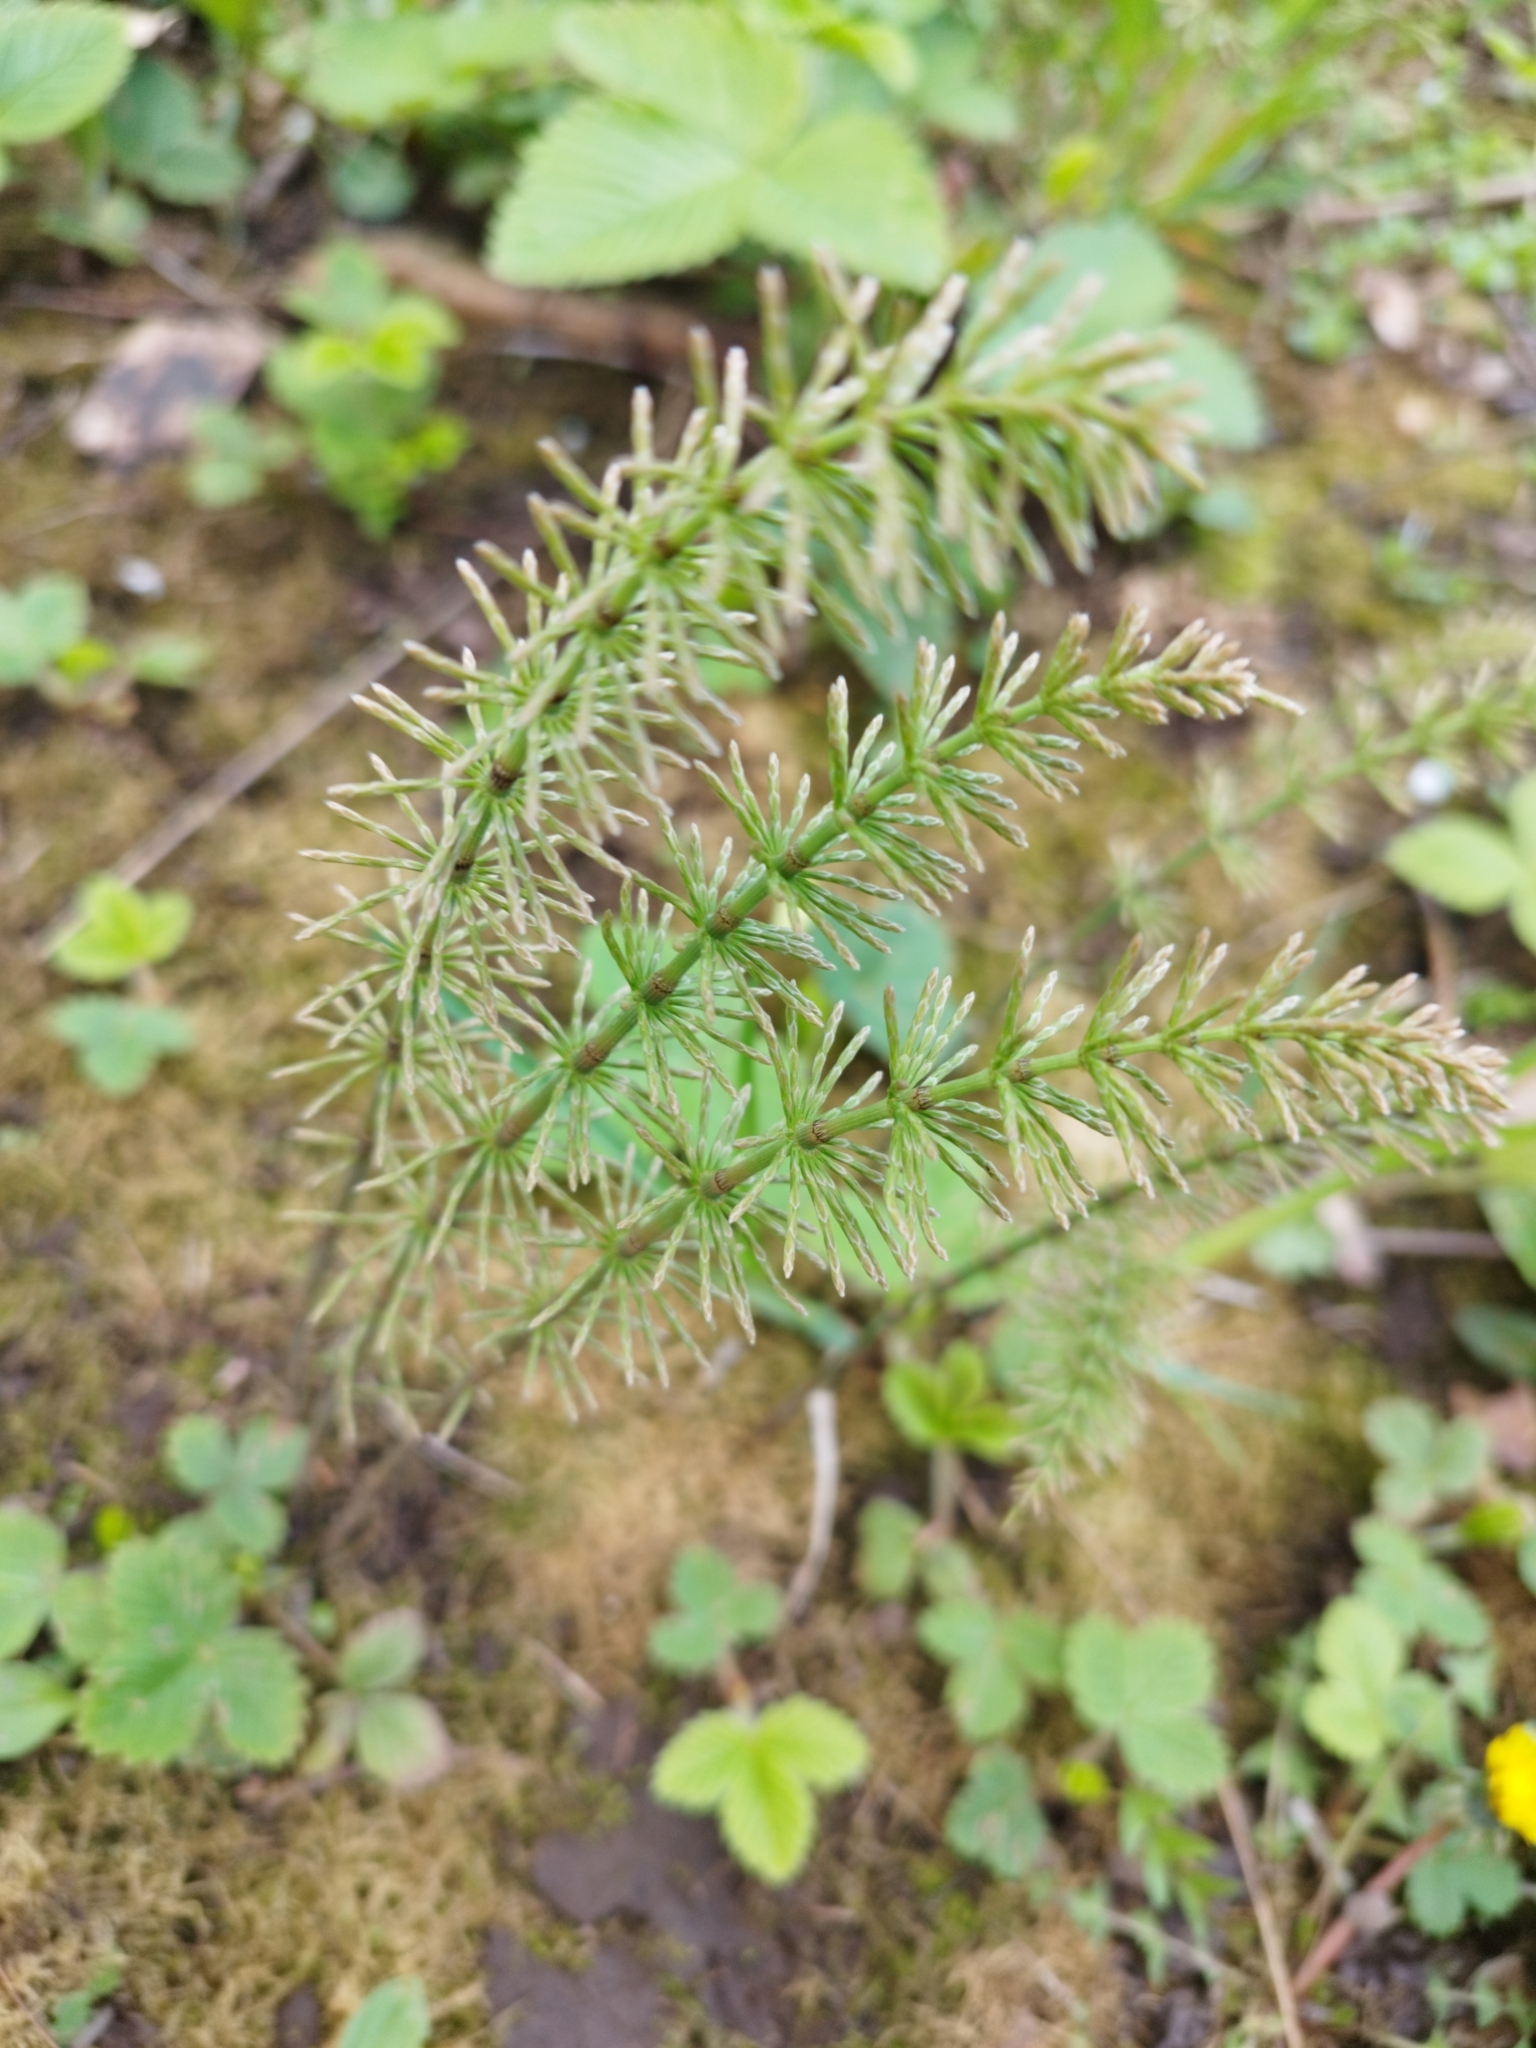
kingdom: Plantae
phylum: Tracheophyta
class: Polypodiopsida
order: Equisetales
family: Equisetaceae
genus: Equisetum
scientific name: Equisetum pratense
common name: Meadow horsetail
